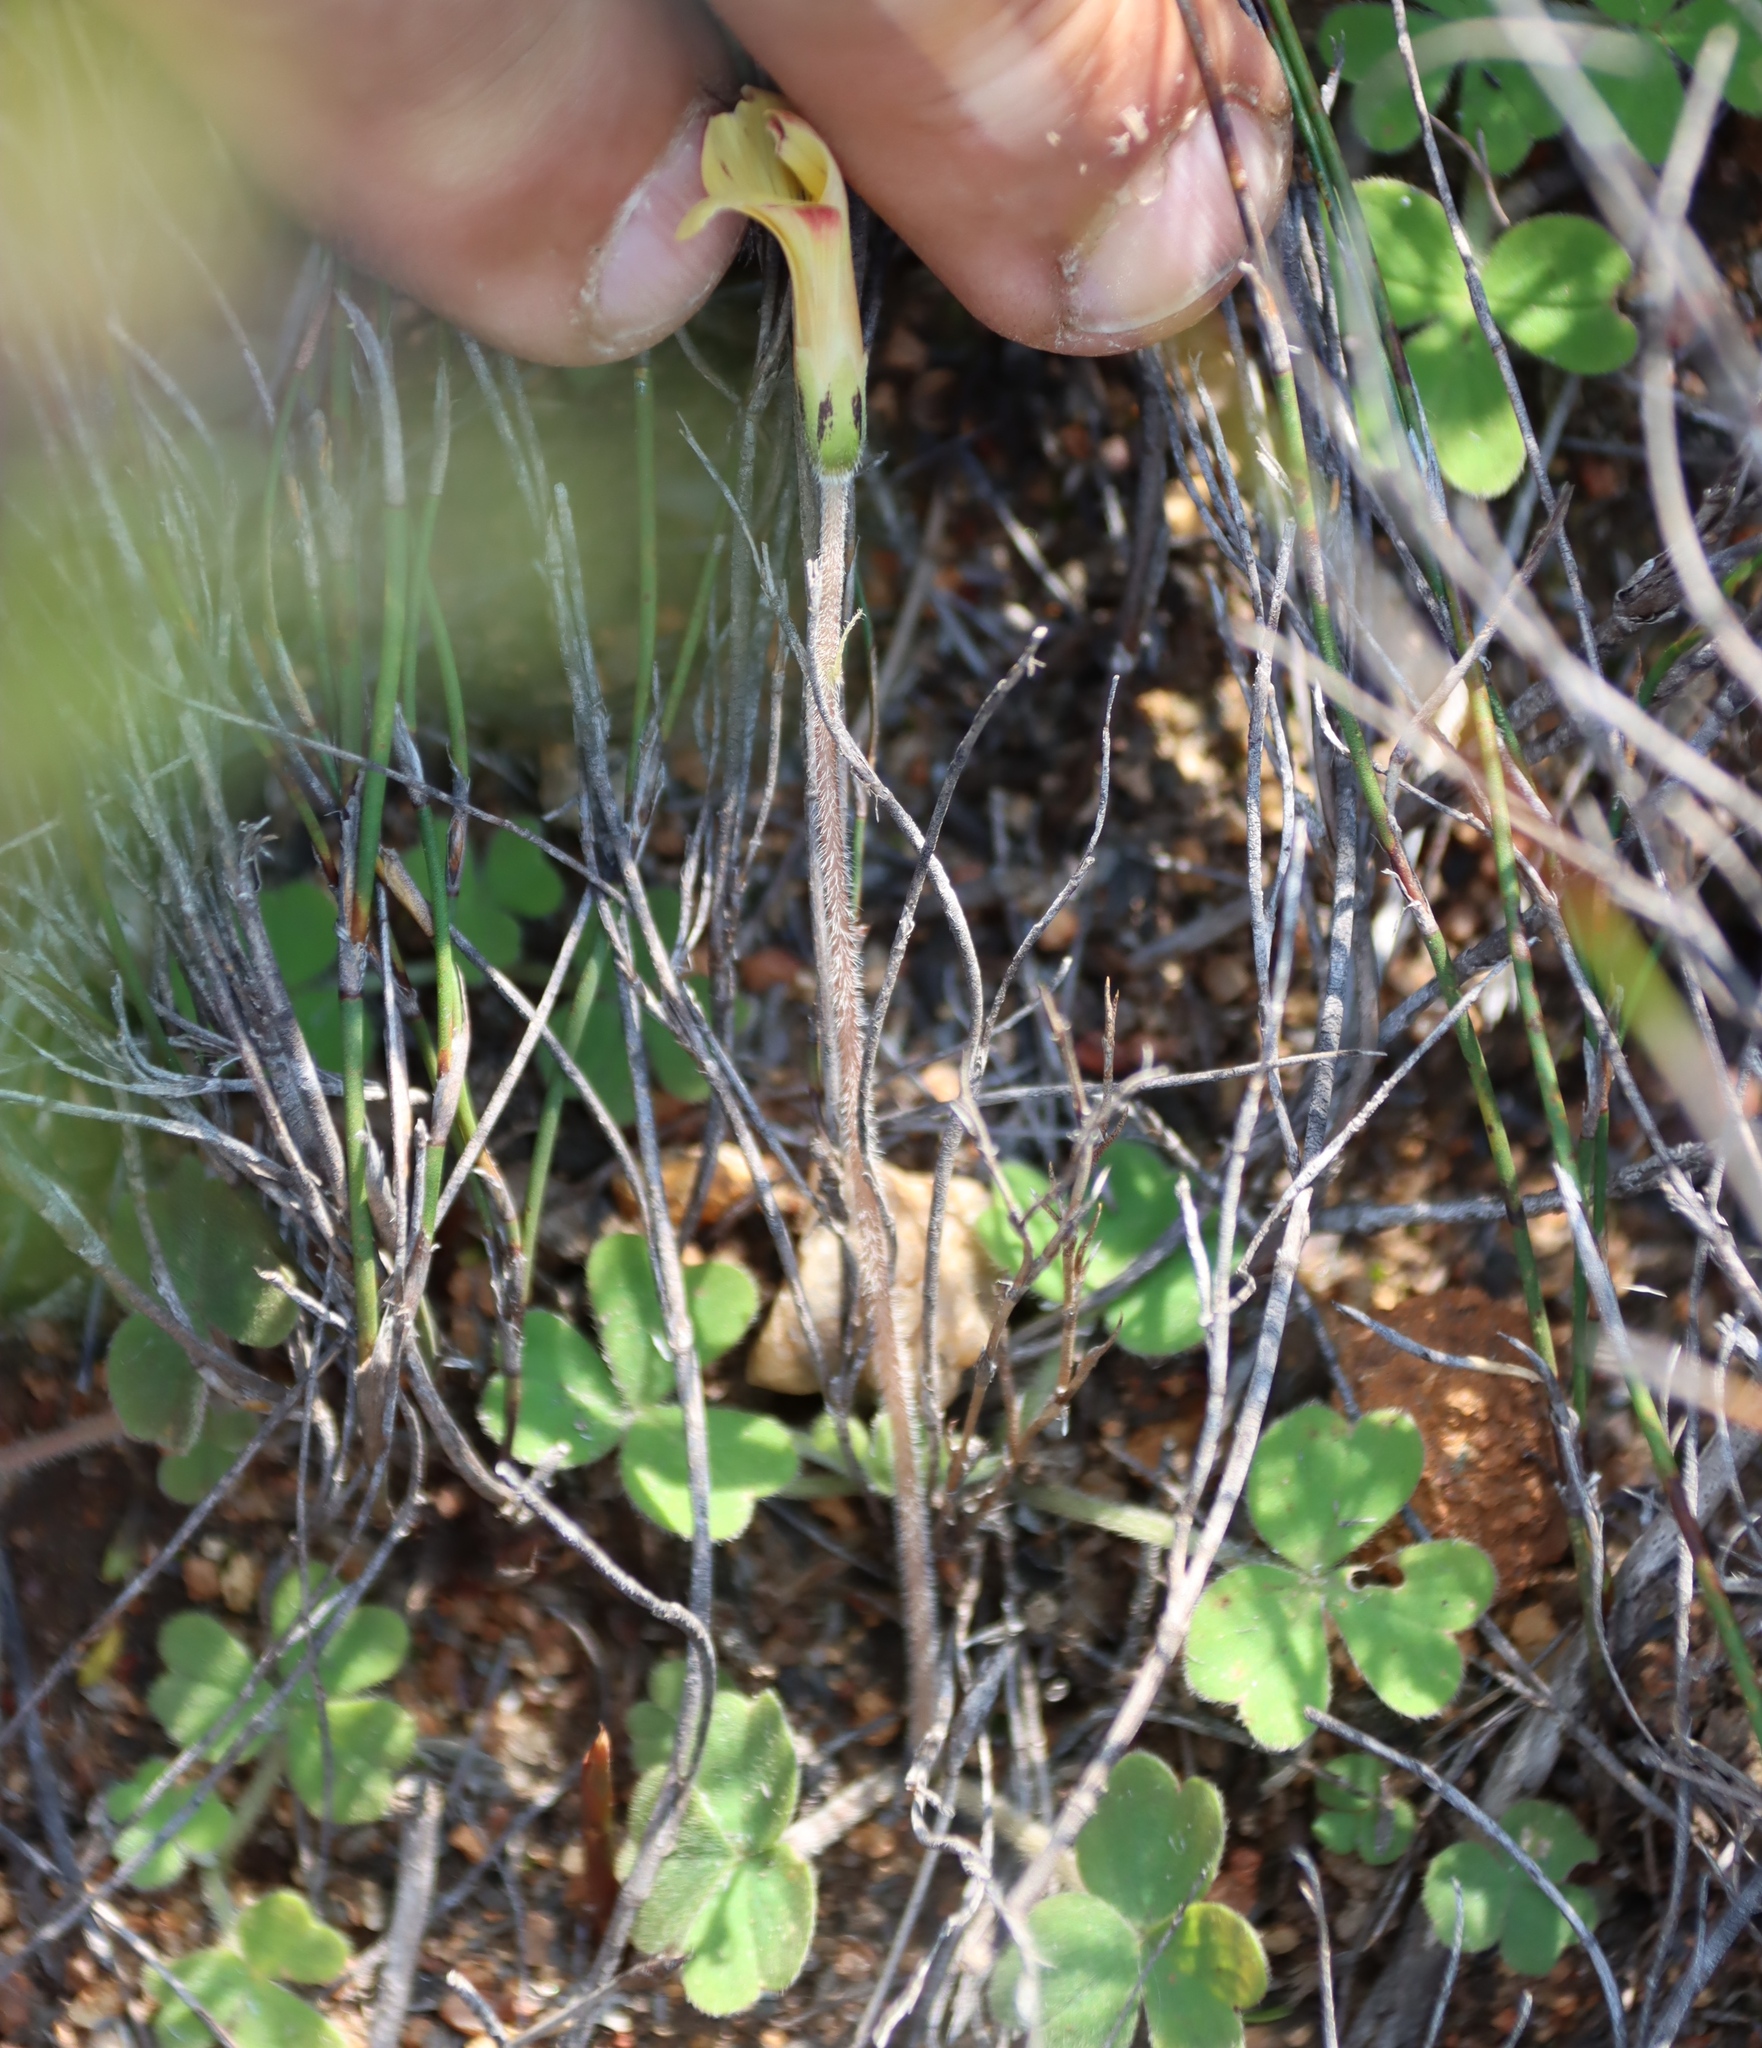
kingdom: Plantae
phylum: Tracheophyta
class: Magnoliopsida
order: Oxalidales
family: Oxalidaceae
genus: Oxalis
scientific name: Oxalis obtusa
